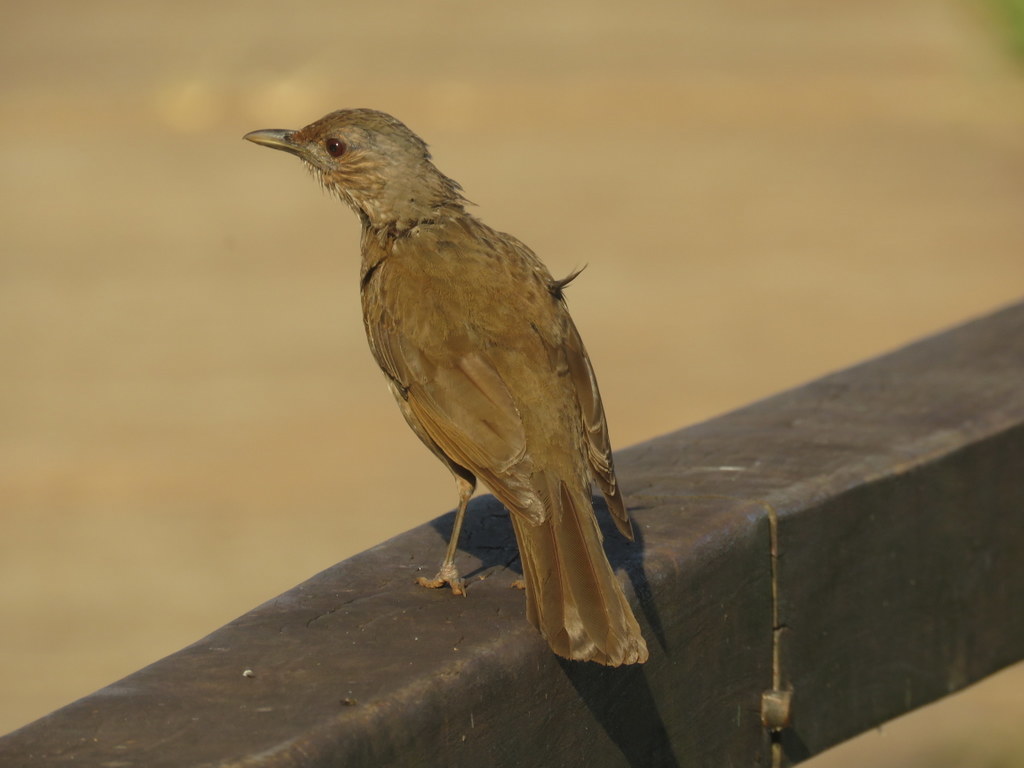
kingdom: Animalia
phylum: Chordata
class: Aves
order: Passeriformes
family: Turdidae
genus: Turdus
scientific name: Turdus leucomelas
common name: Pale-breasted thrush
